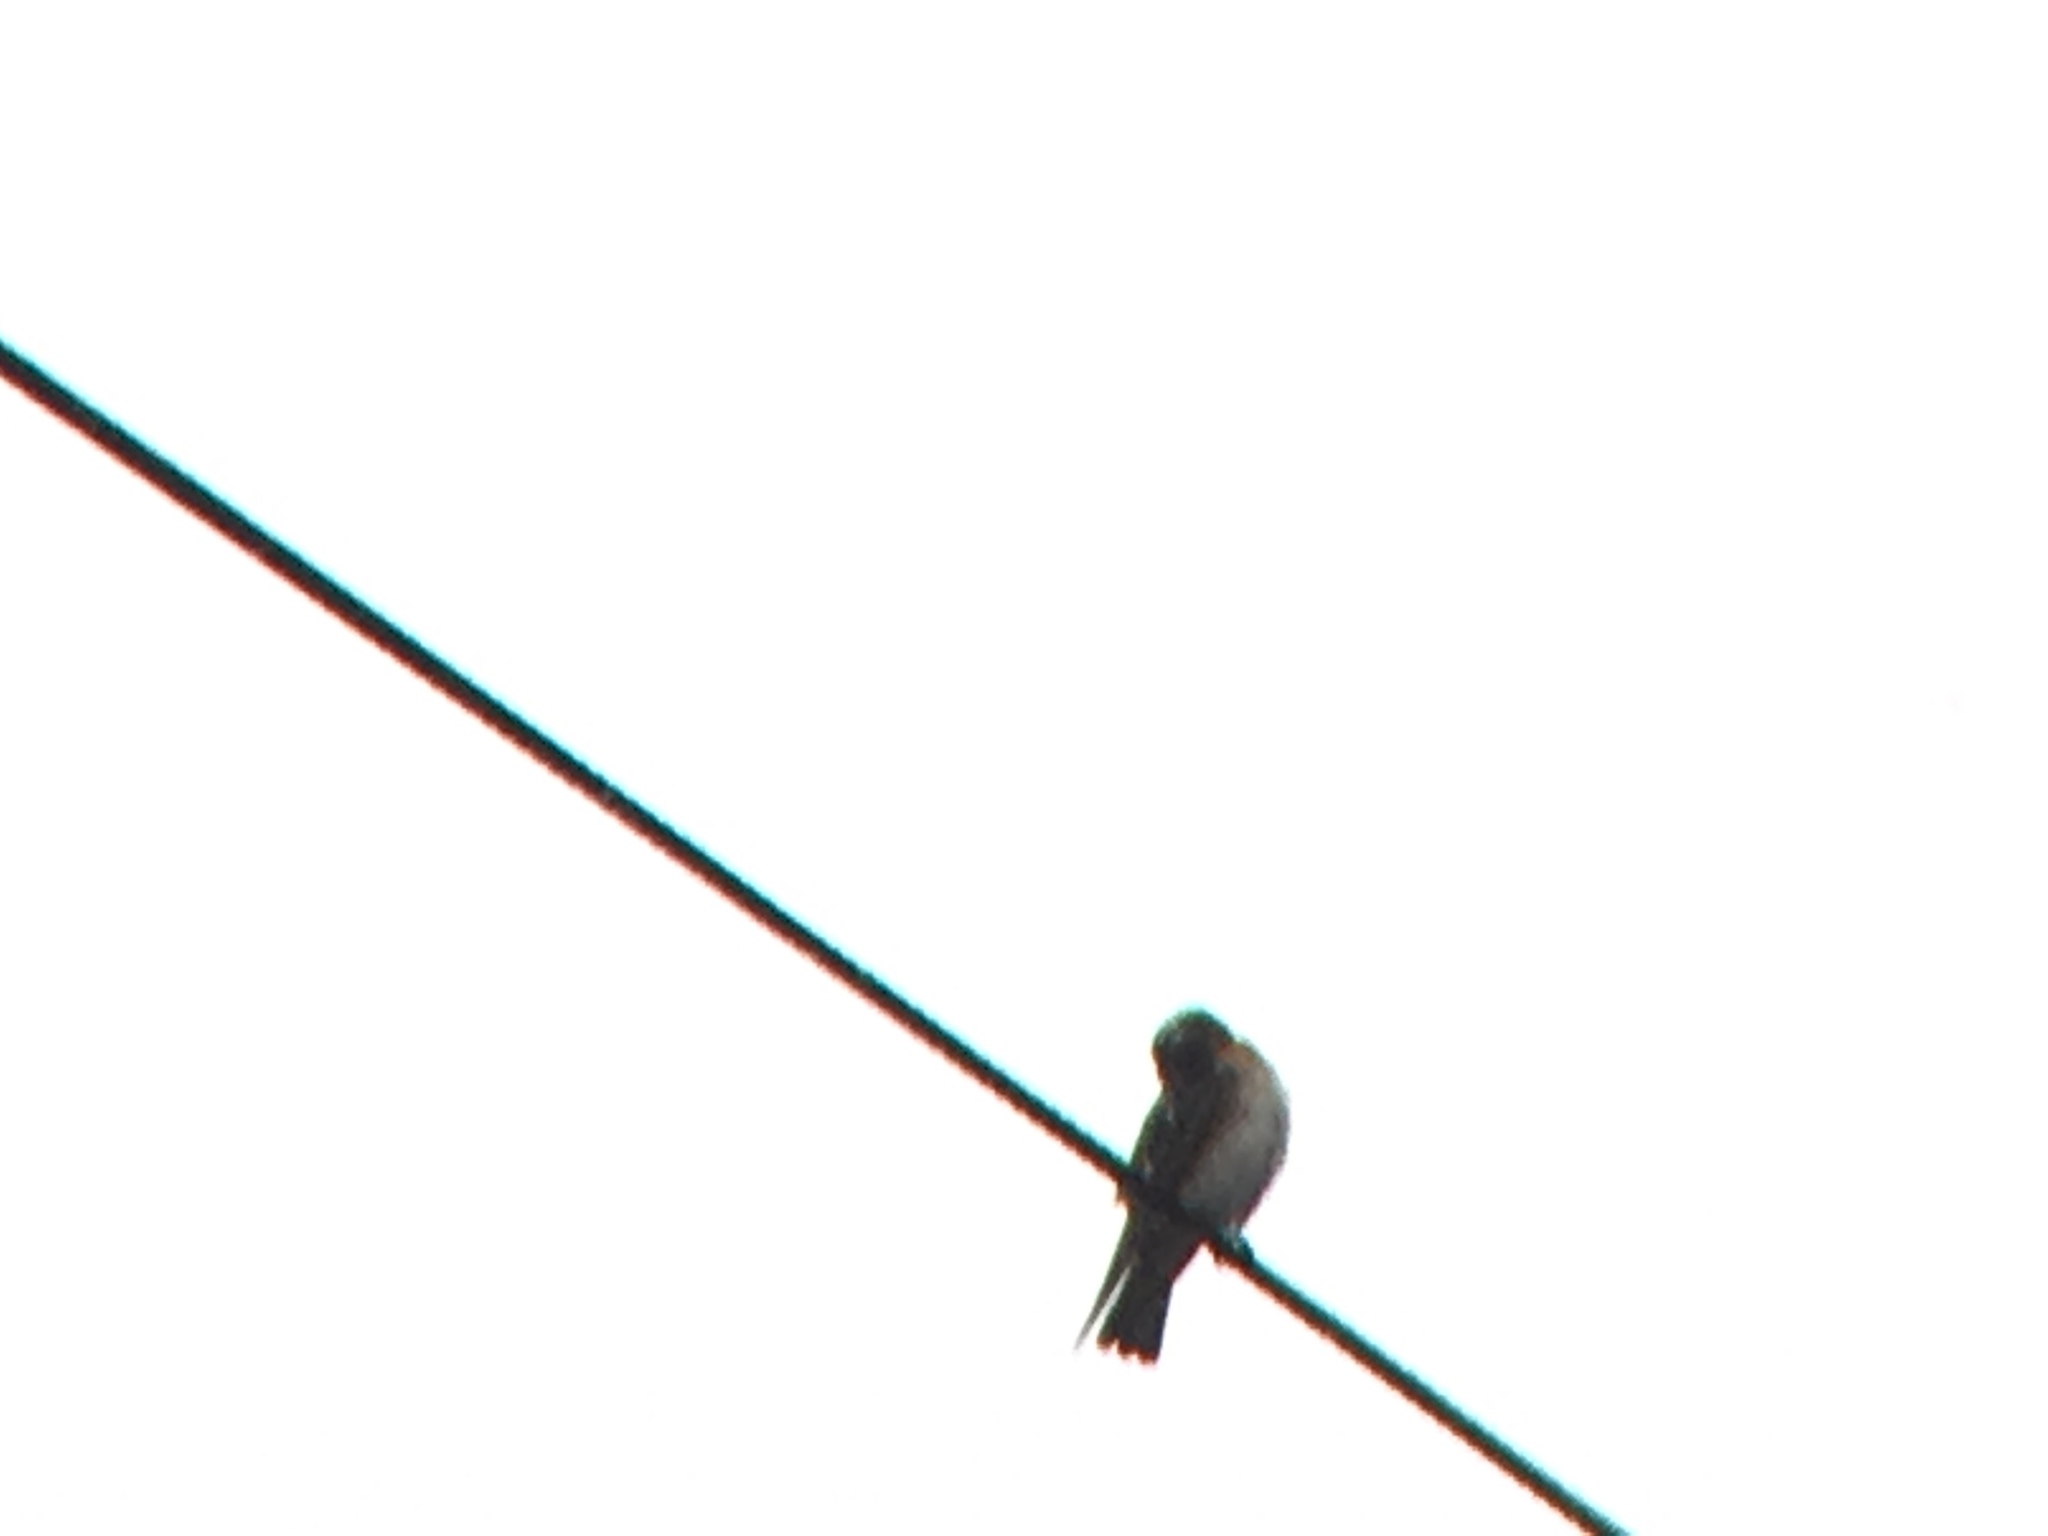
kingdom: Animalia
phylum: Chordata
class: Aves
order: Passeriformes
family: Hirundinidae
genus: Petrochelidon
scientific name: Petrochelidon pyrrhonota
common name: American cliff swallow
